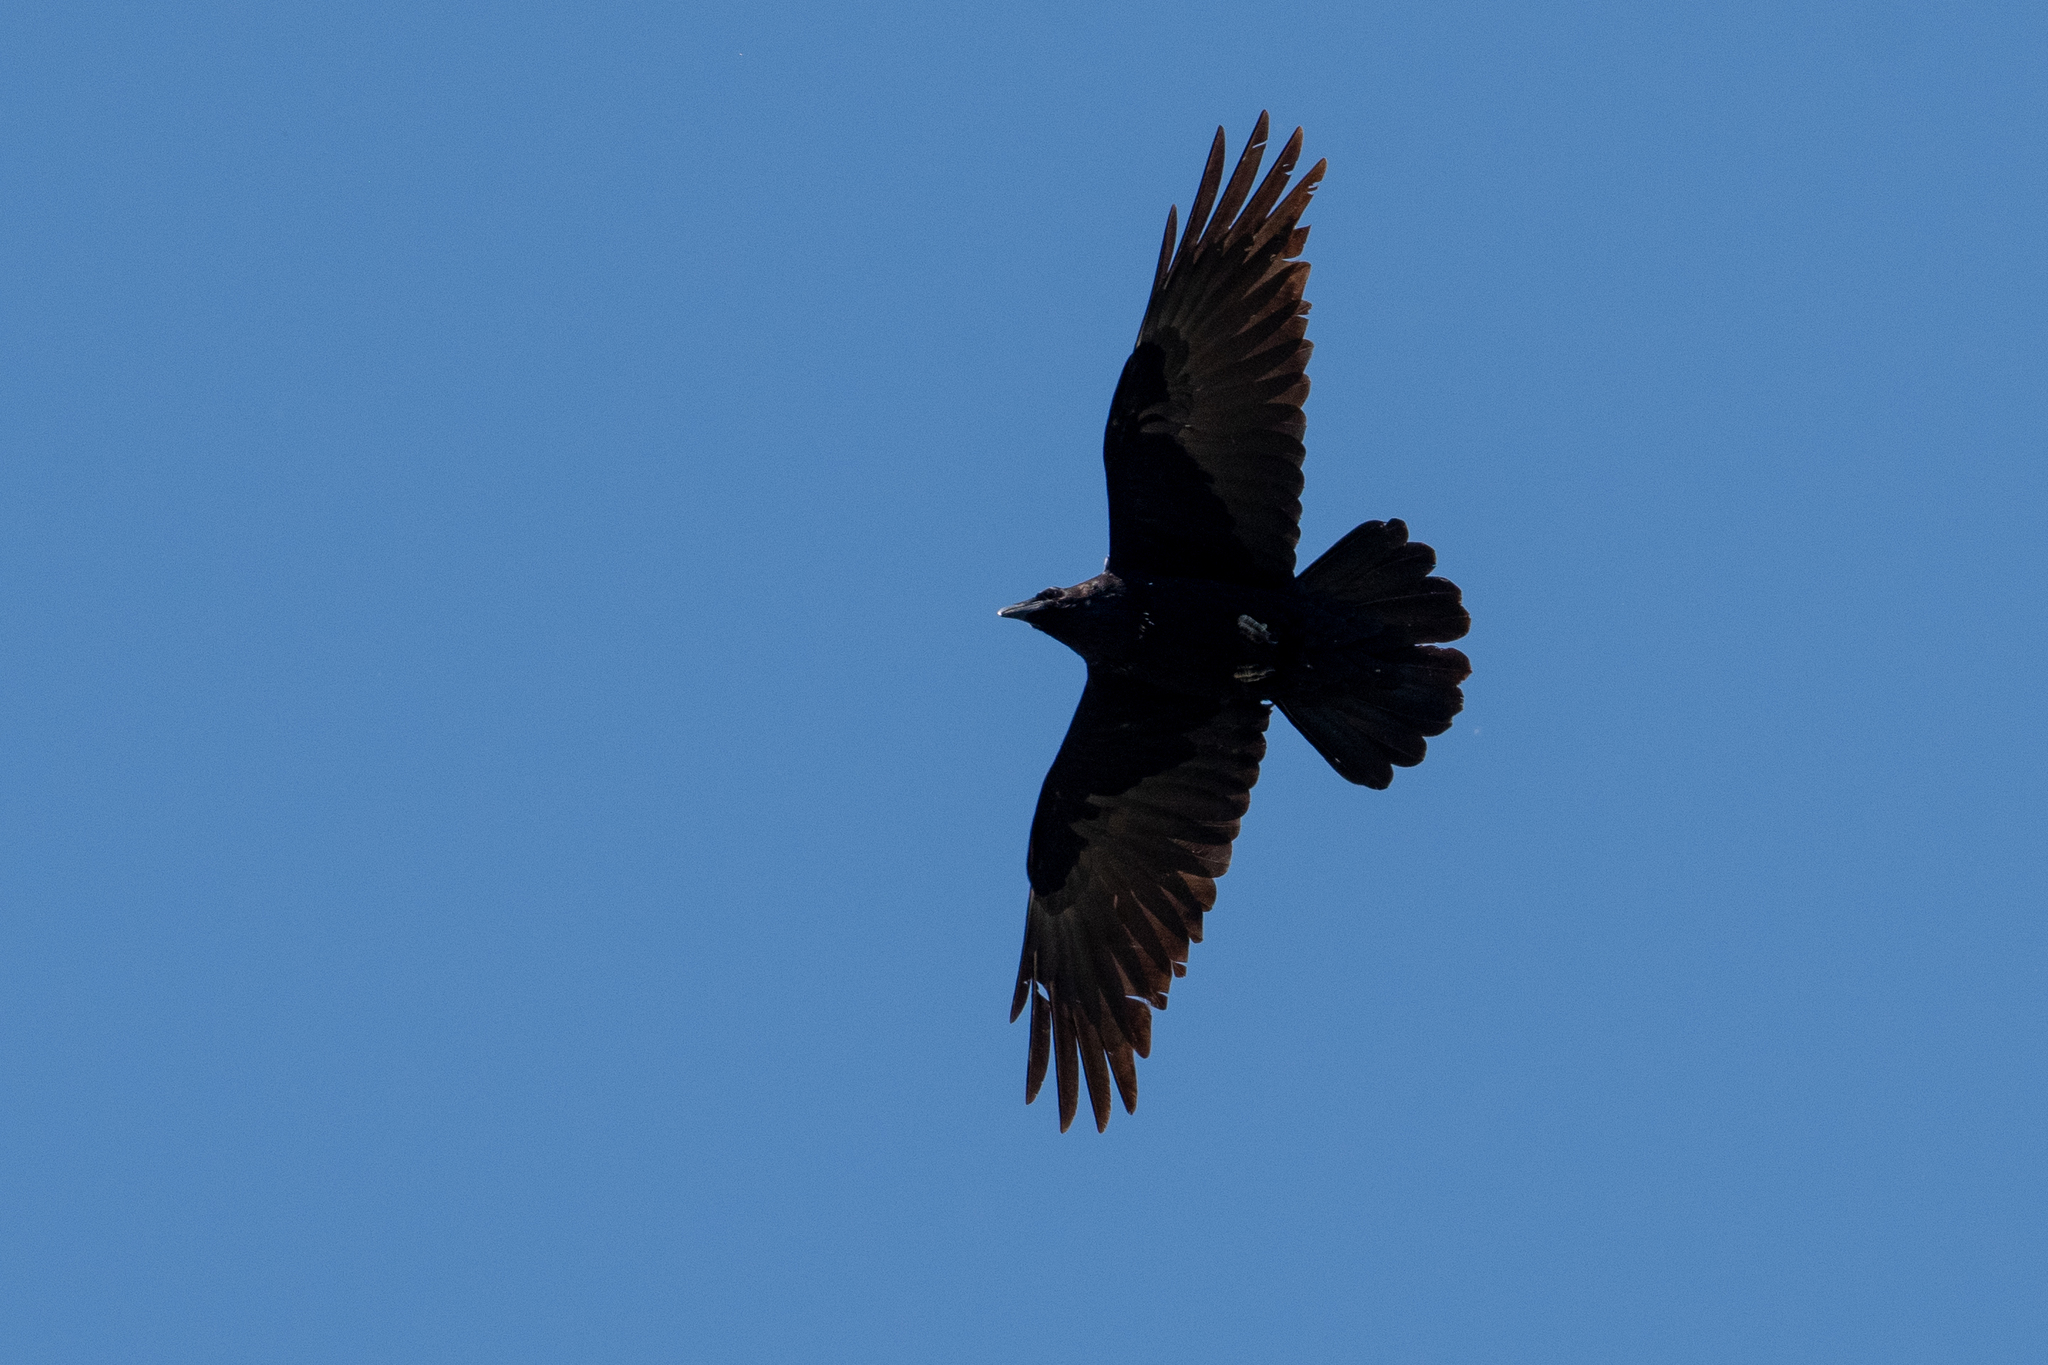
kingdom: Animalia
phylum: Chordata
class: Aves
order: Passeriformes
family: Corvidae
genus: Corvus
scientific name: Corvus corax
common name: Common raven
